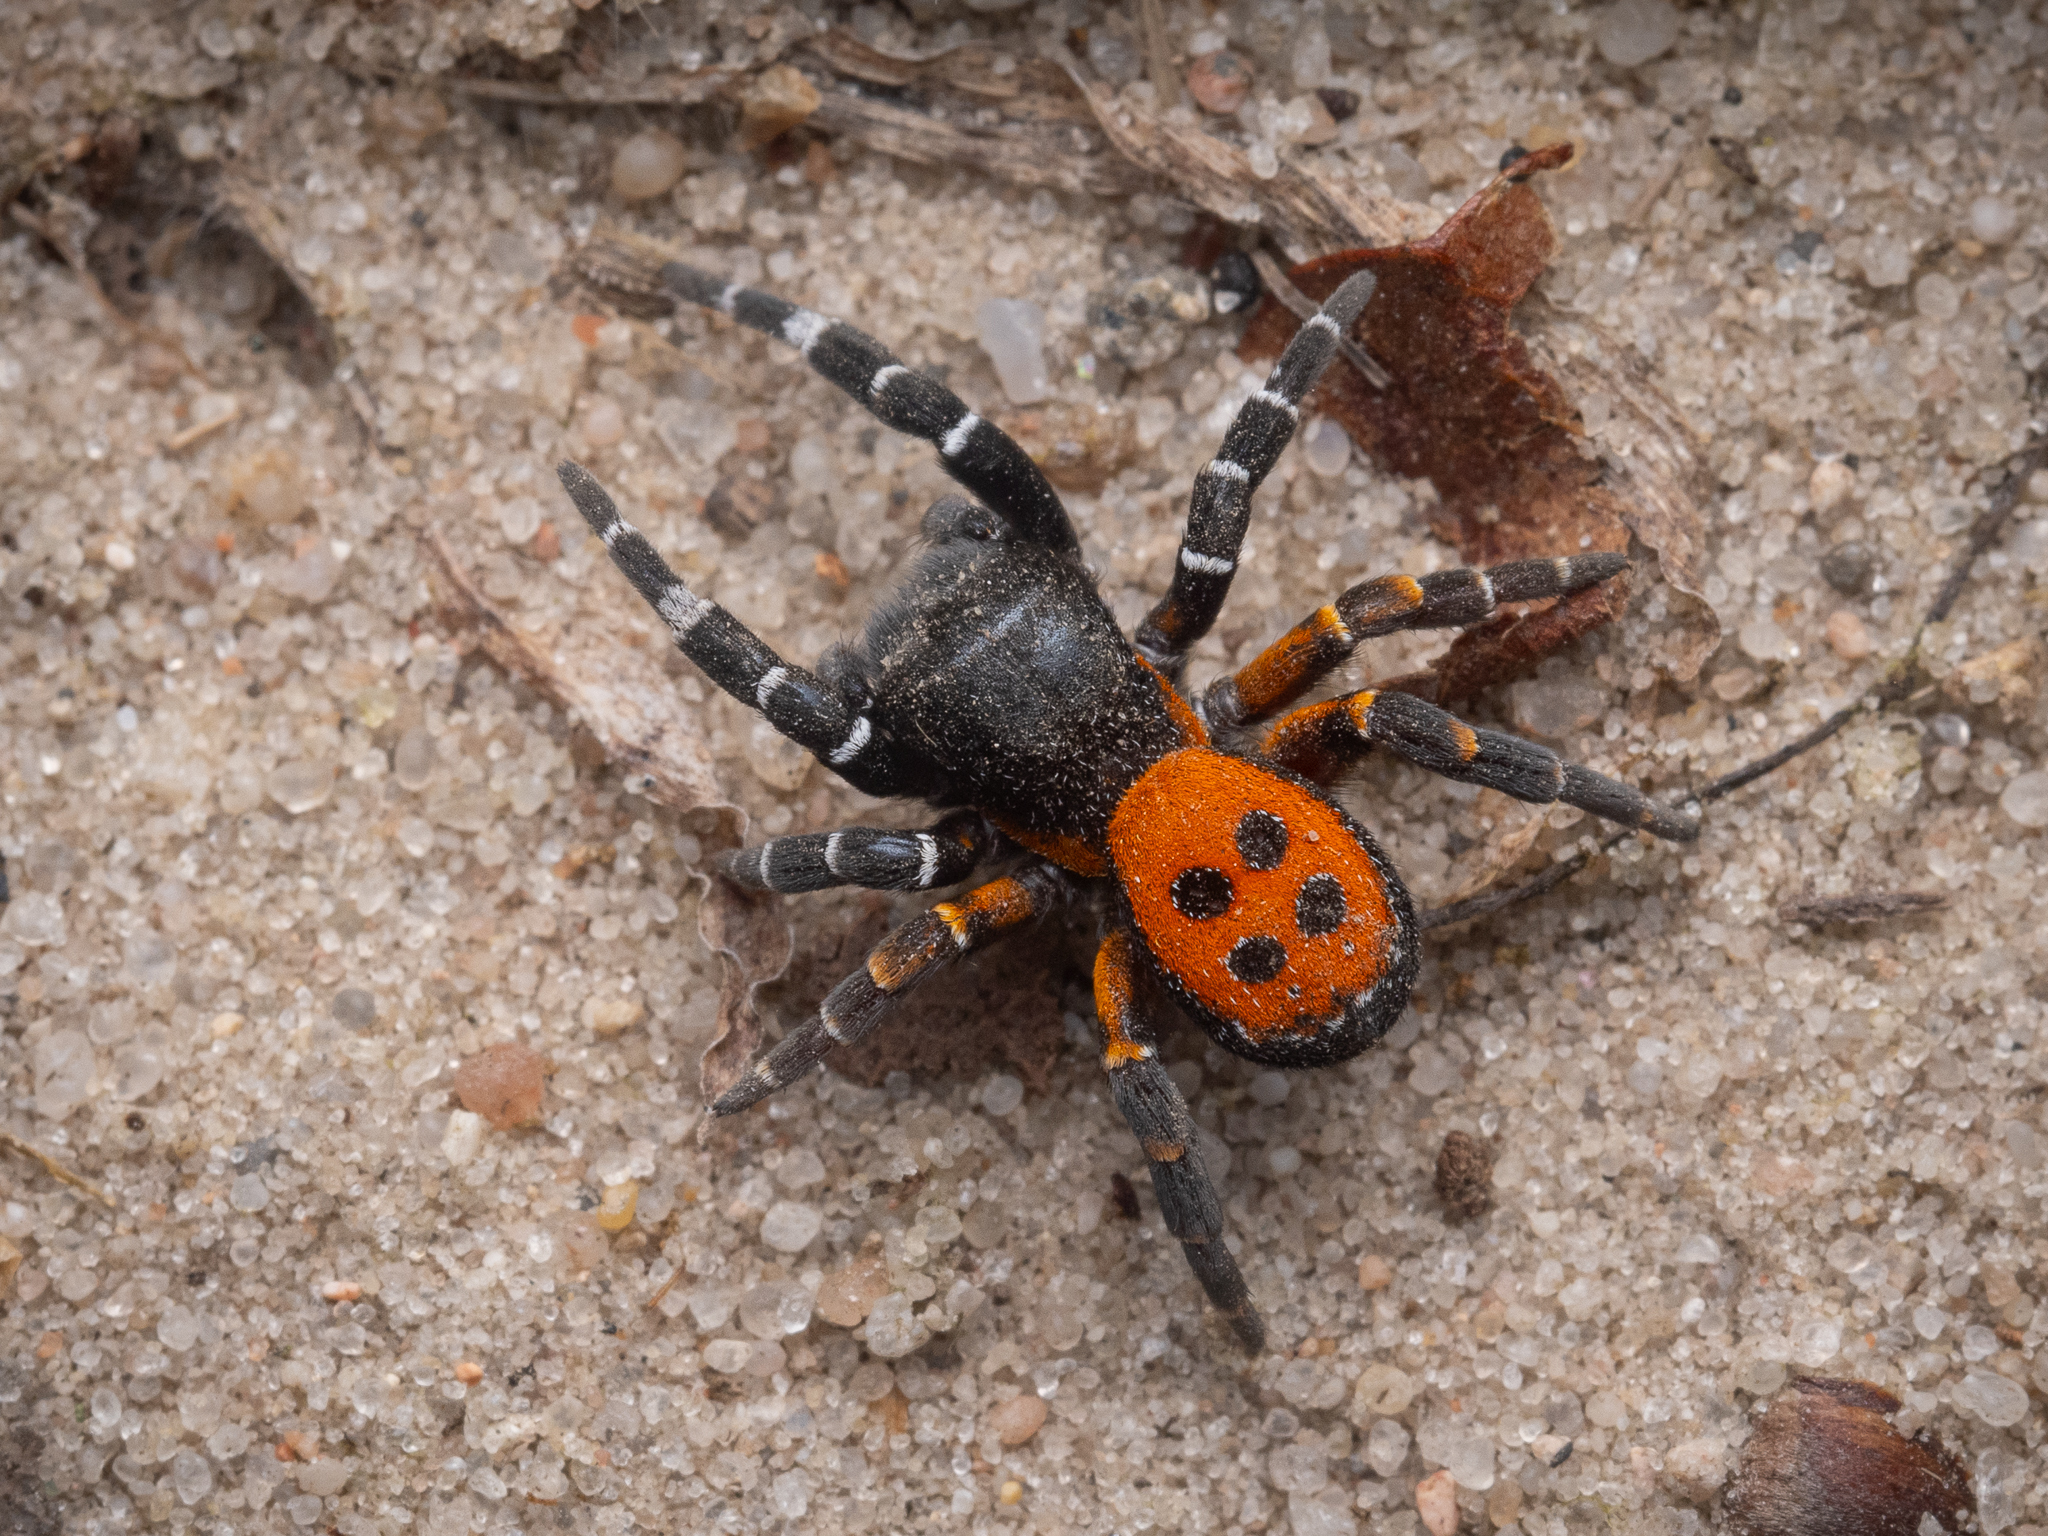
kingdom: Animalia
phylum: Arthropoda
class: Arachnida
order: Araneae
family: Eresidae
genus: Eresus
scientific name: Eresus kollari
